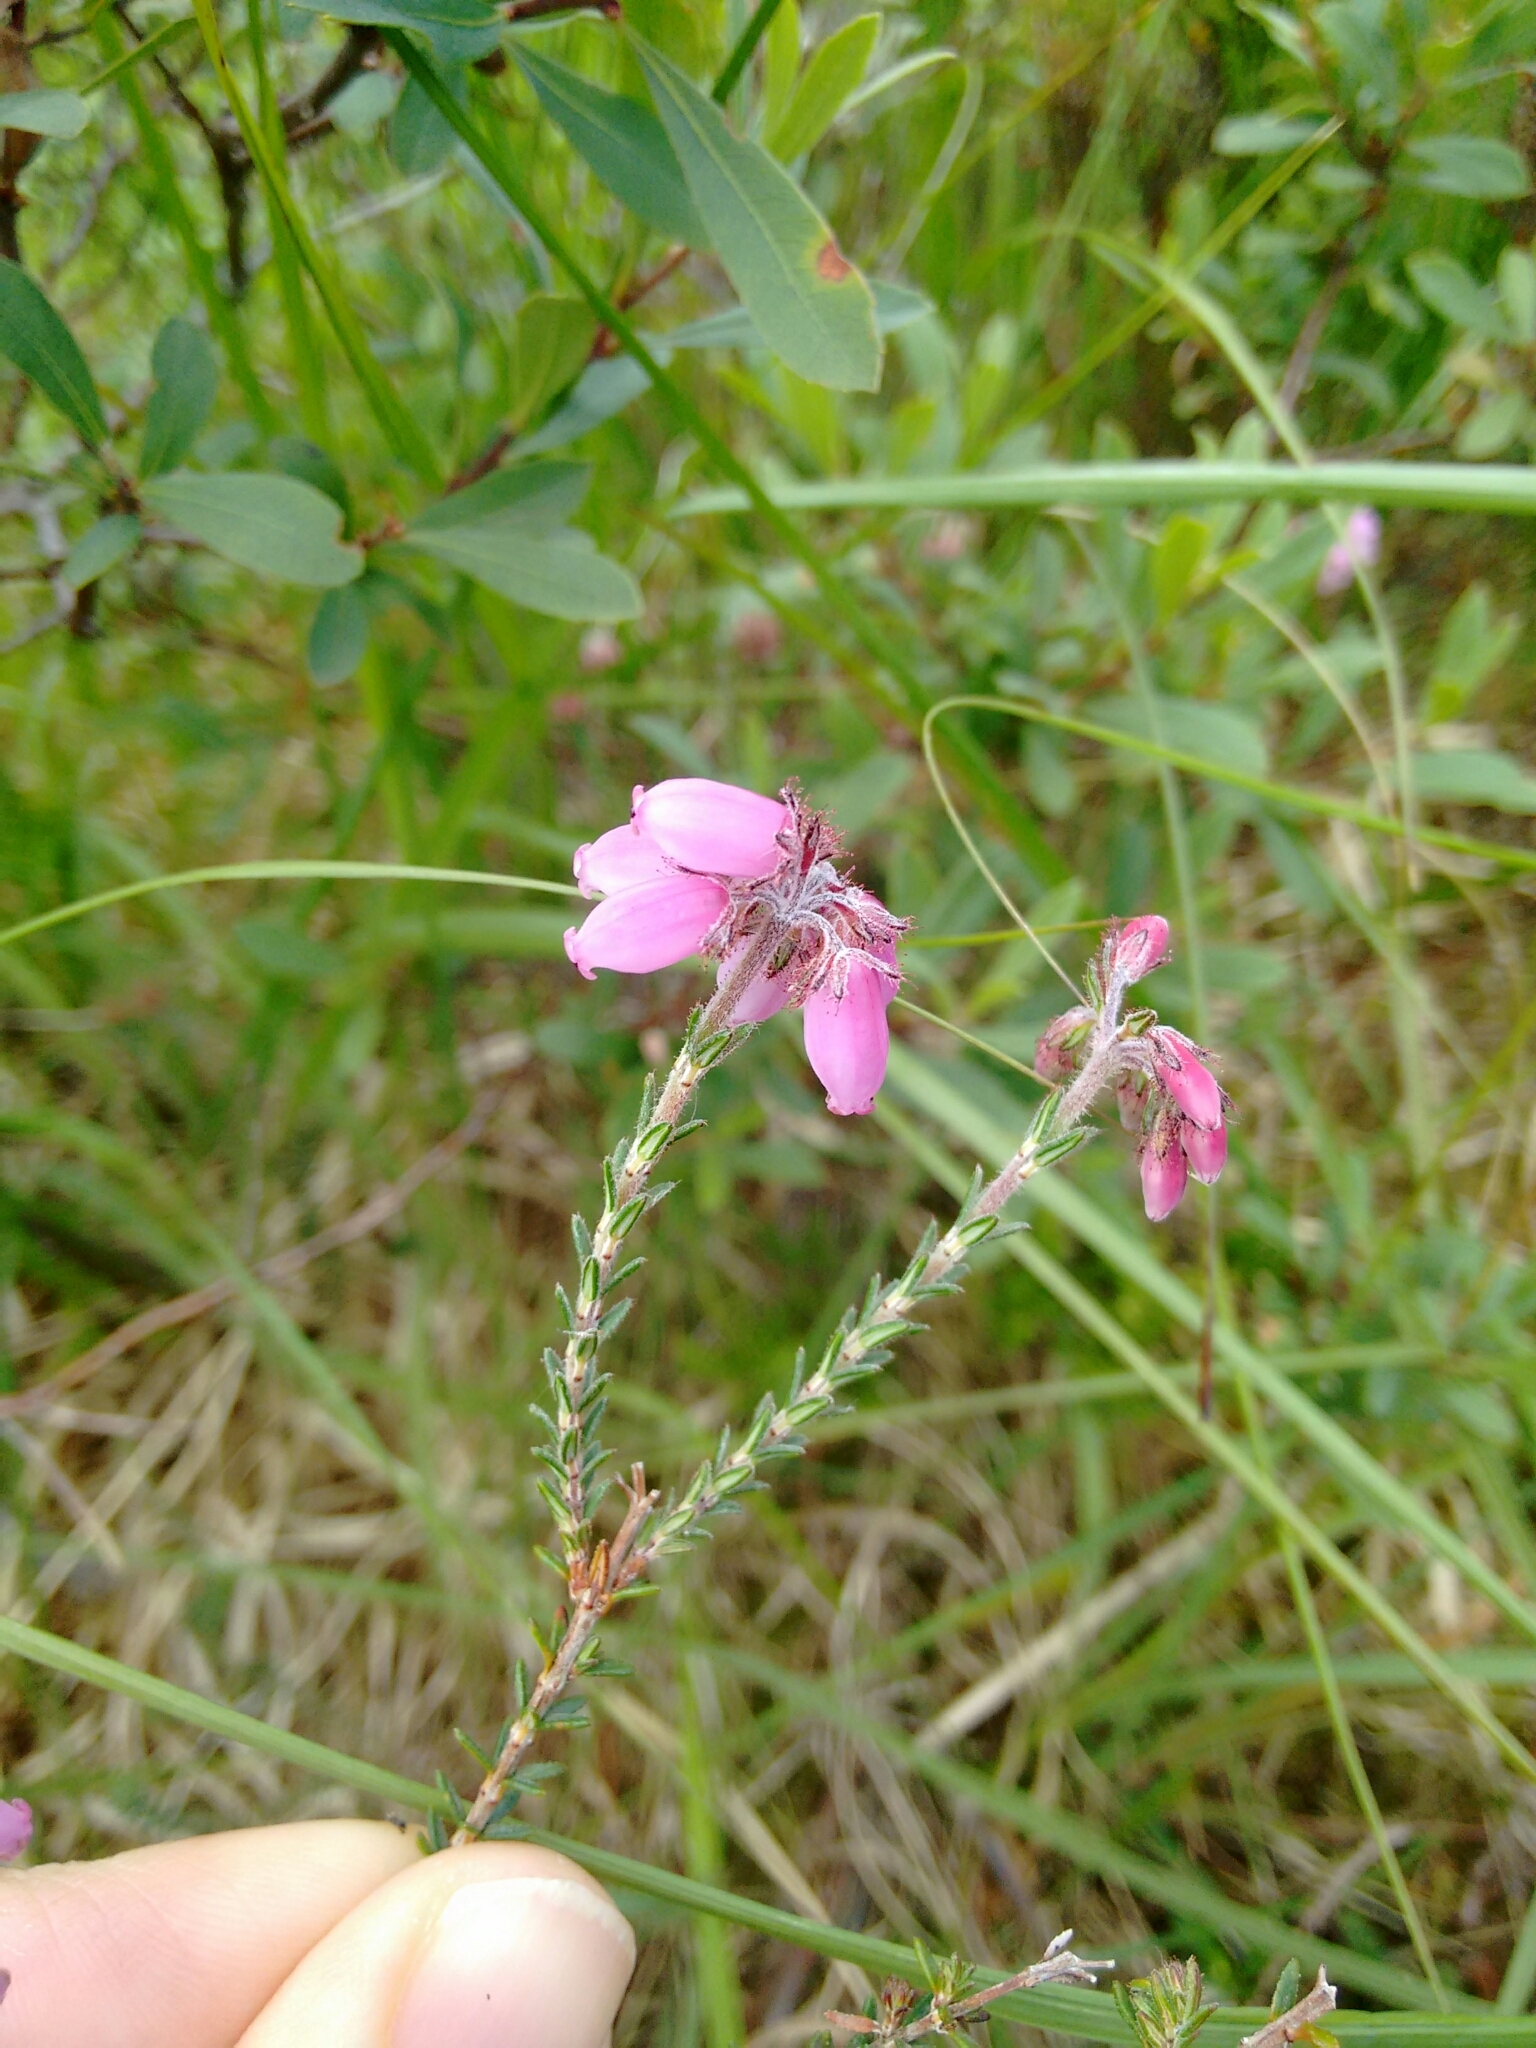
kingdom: Plantae
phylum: Tracheophyta
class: Magnoliopsida
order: Ericales
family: Ericaceae
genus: Erica
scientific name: Erica tetralix
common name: Cross-leaved heath
